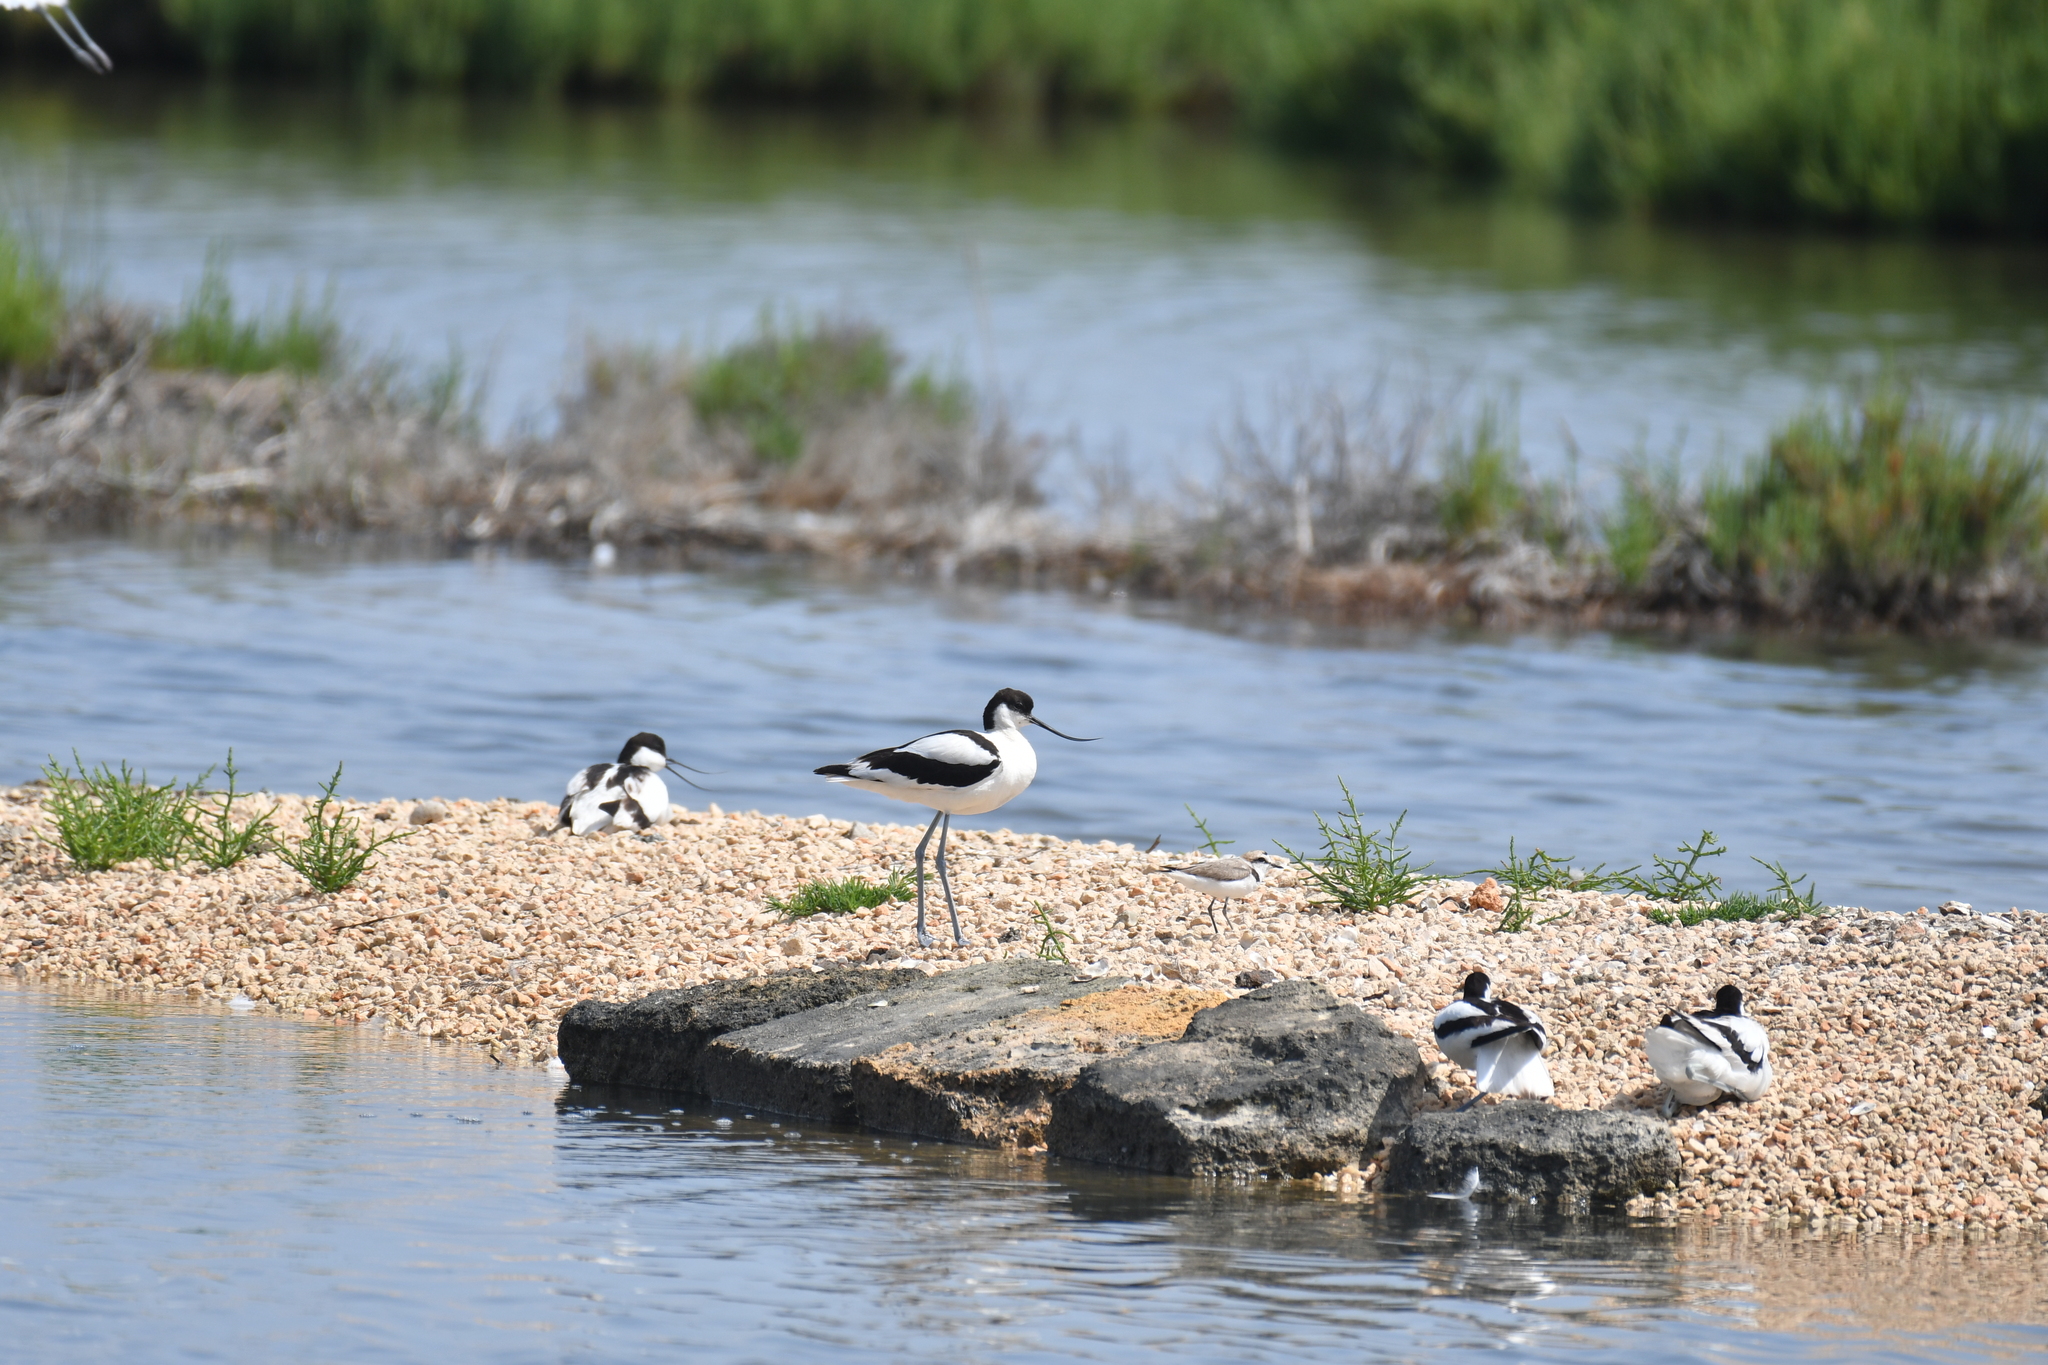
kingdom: Animalia
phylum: Chordata
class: Aves
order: Charadriiformes
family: Recurvirostridae
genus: Recurvirostra
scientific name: Recurvirostra avosetta
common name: Pied avocet
